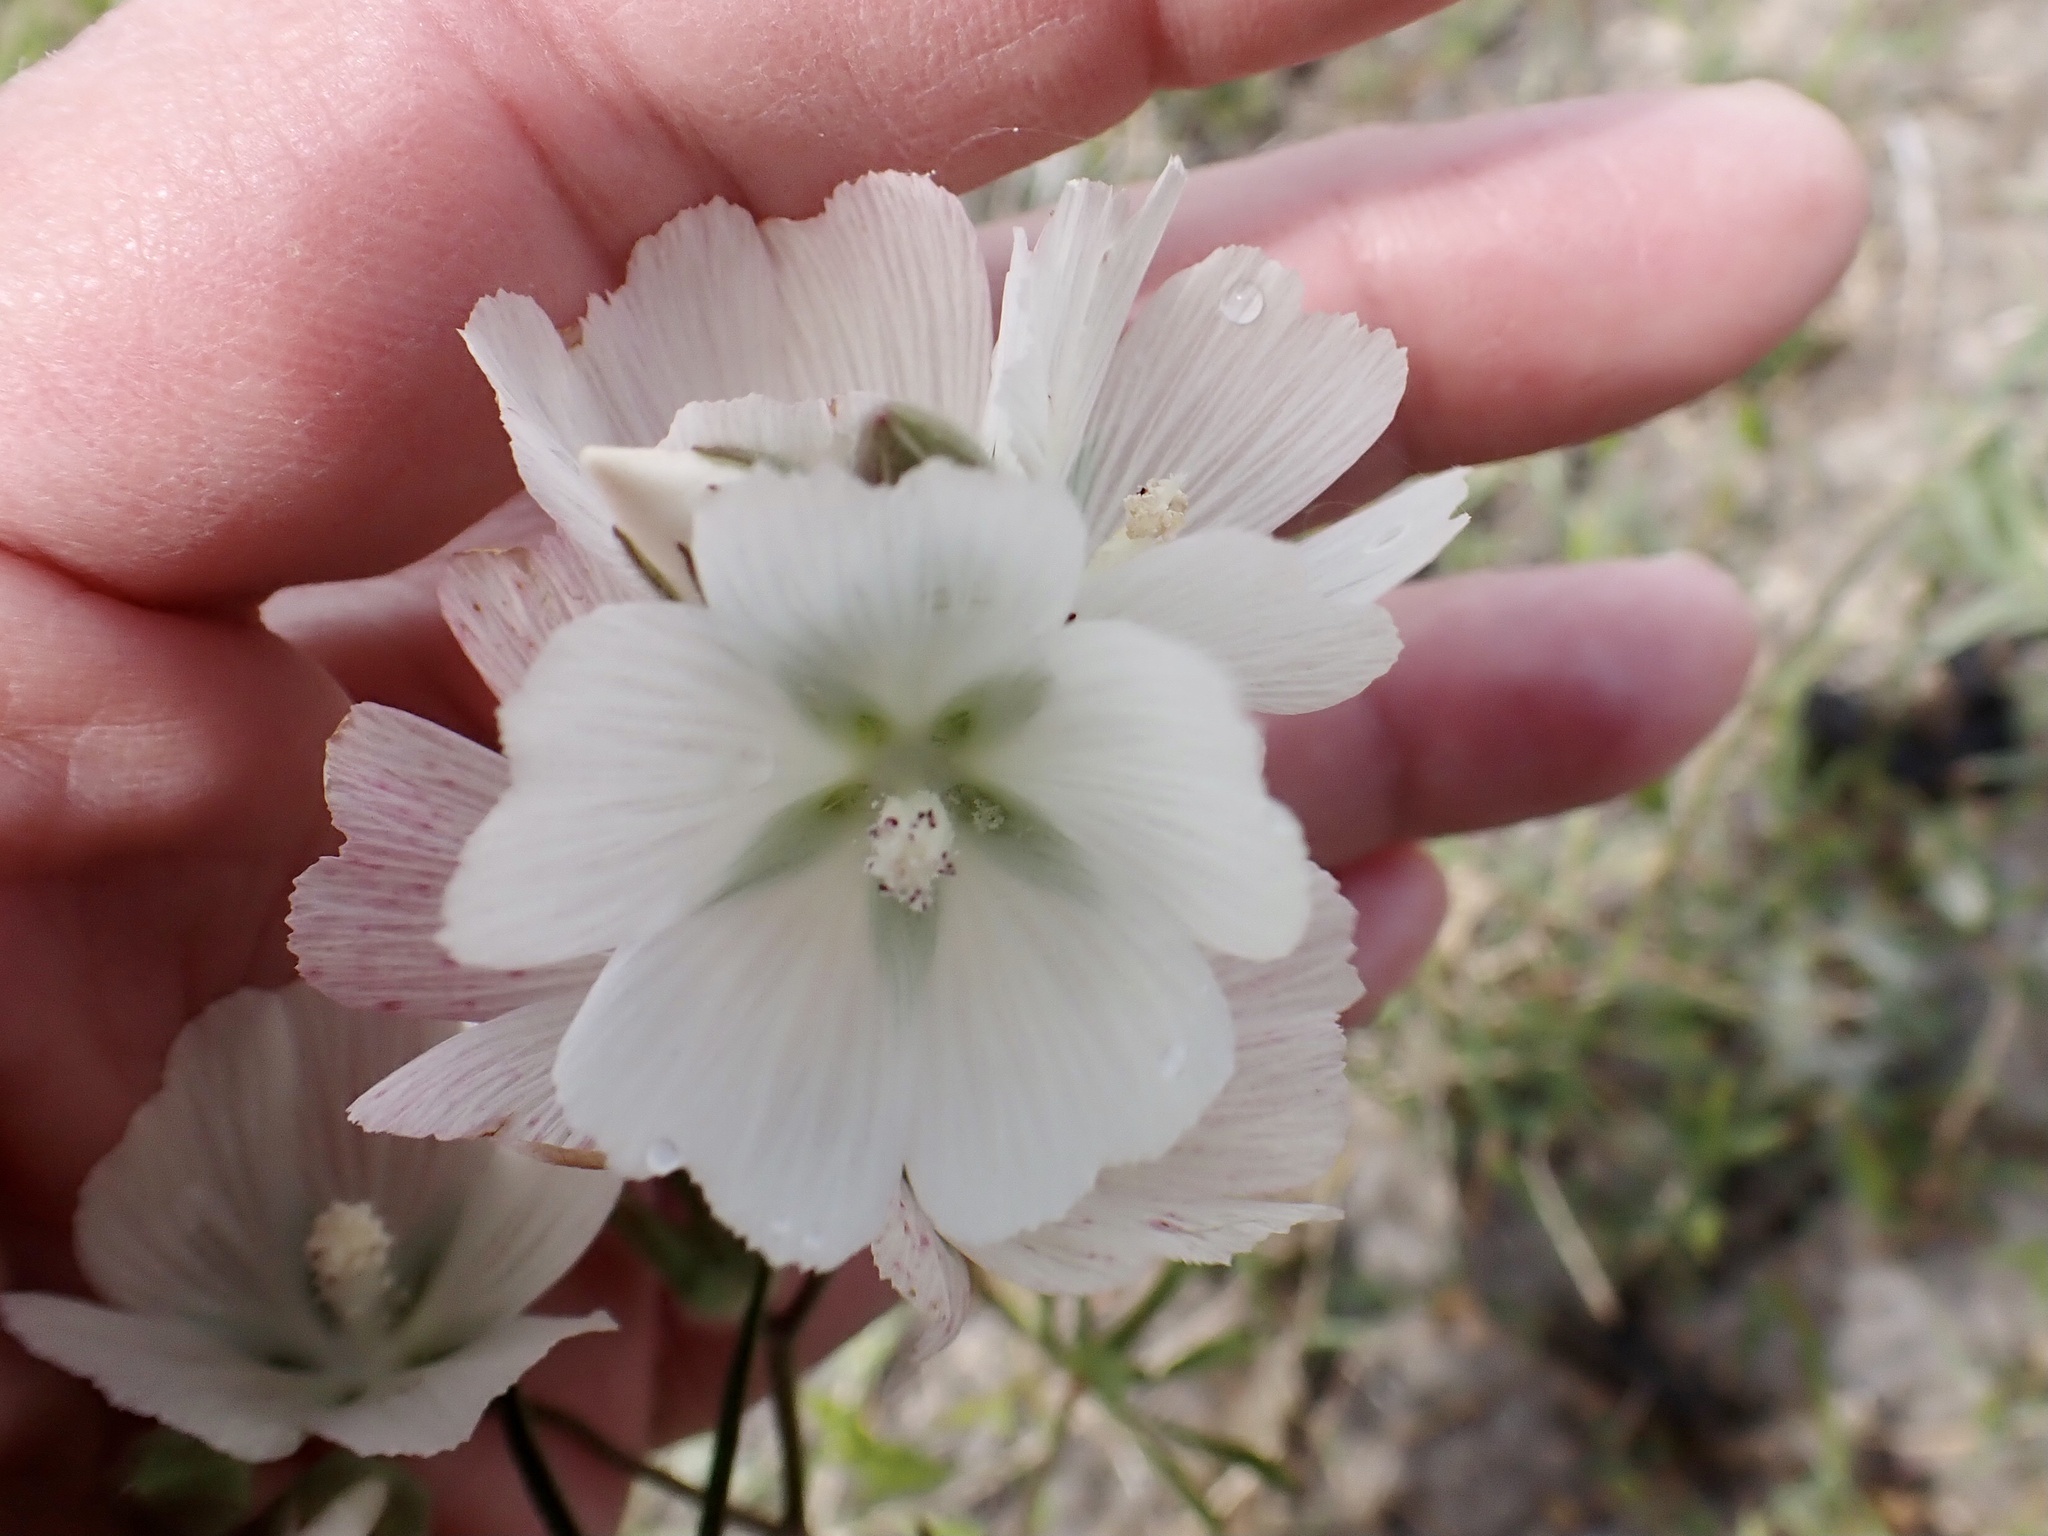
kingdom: Plantae
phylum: Tracheophyta
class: Magnoliopsida
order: Malvales
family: Malvaceae
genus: Sidalcea
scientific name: Sidalcea hirsuta
